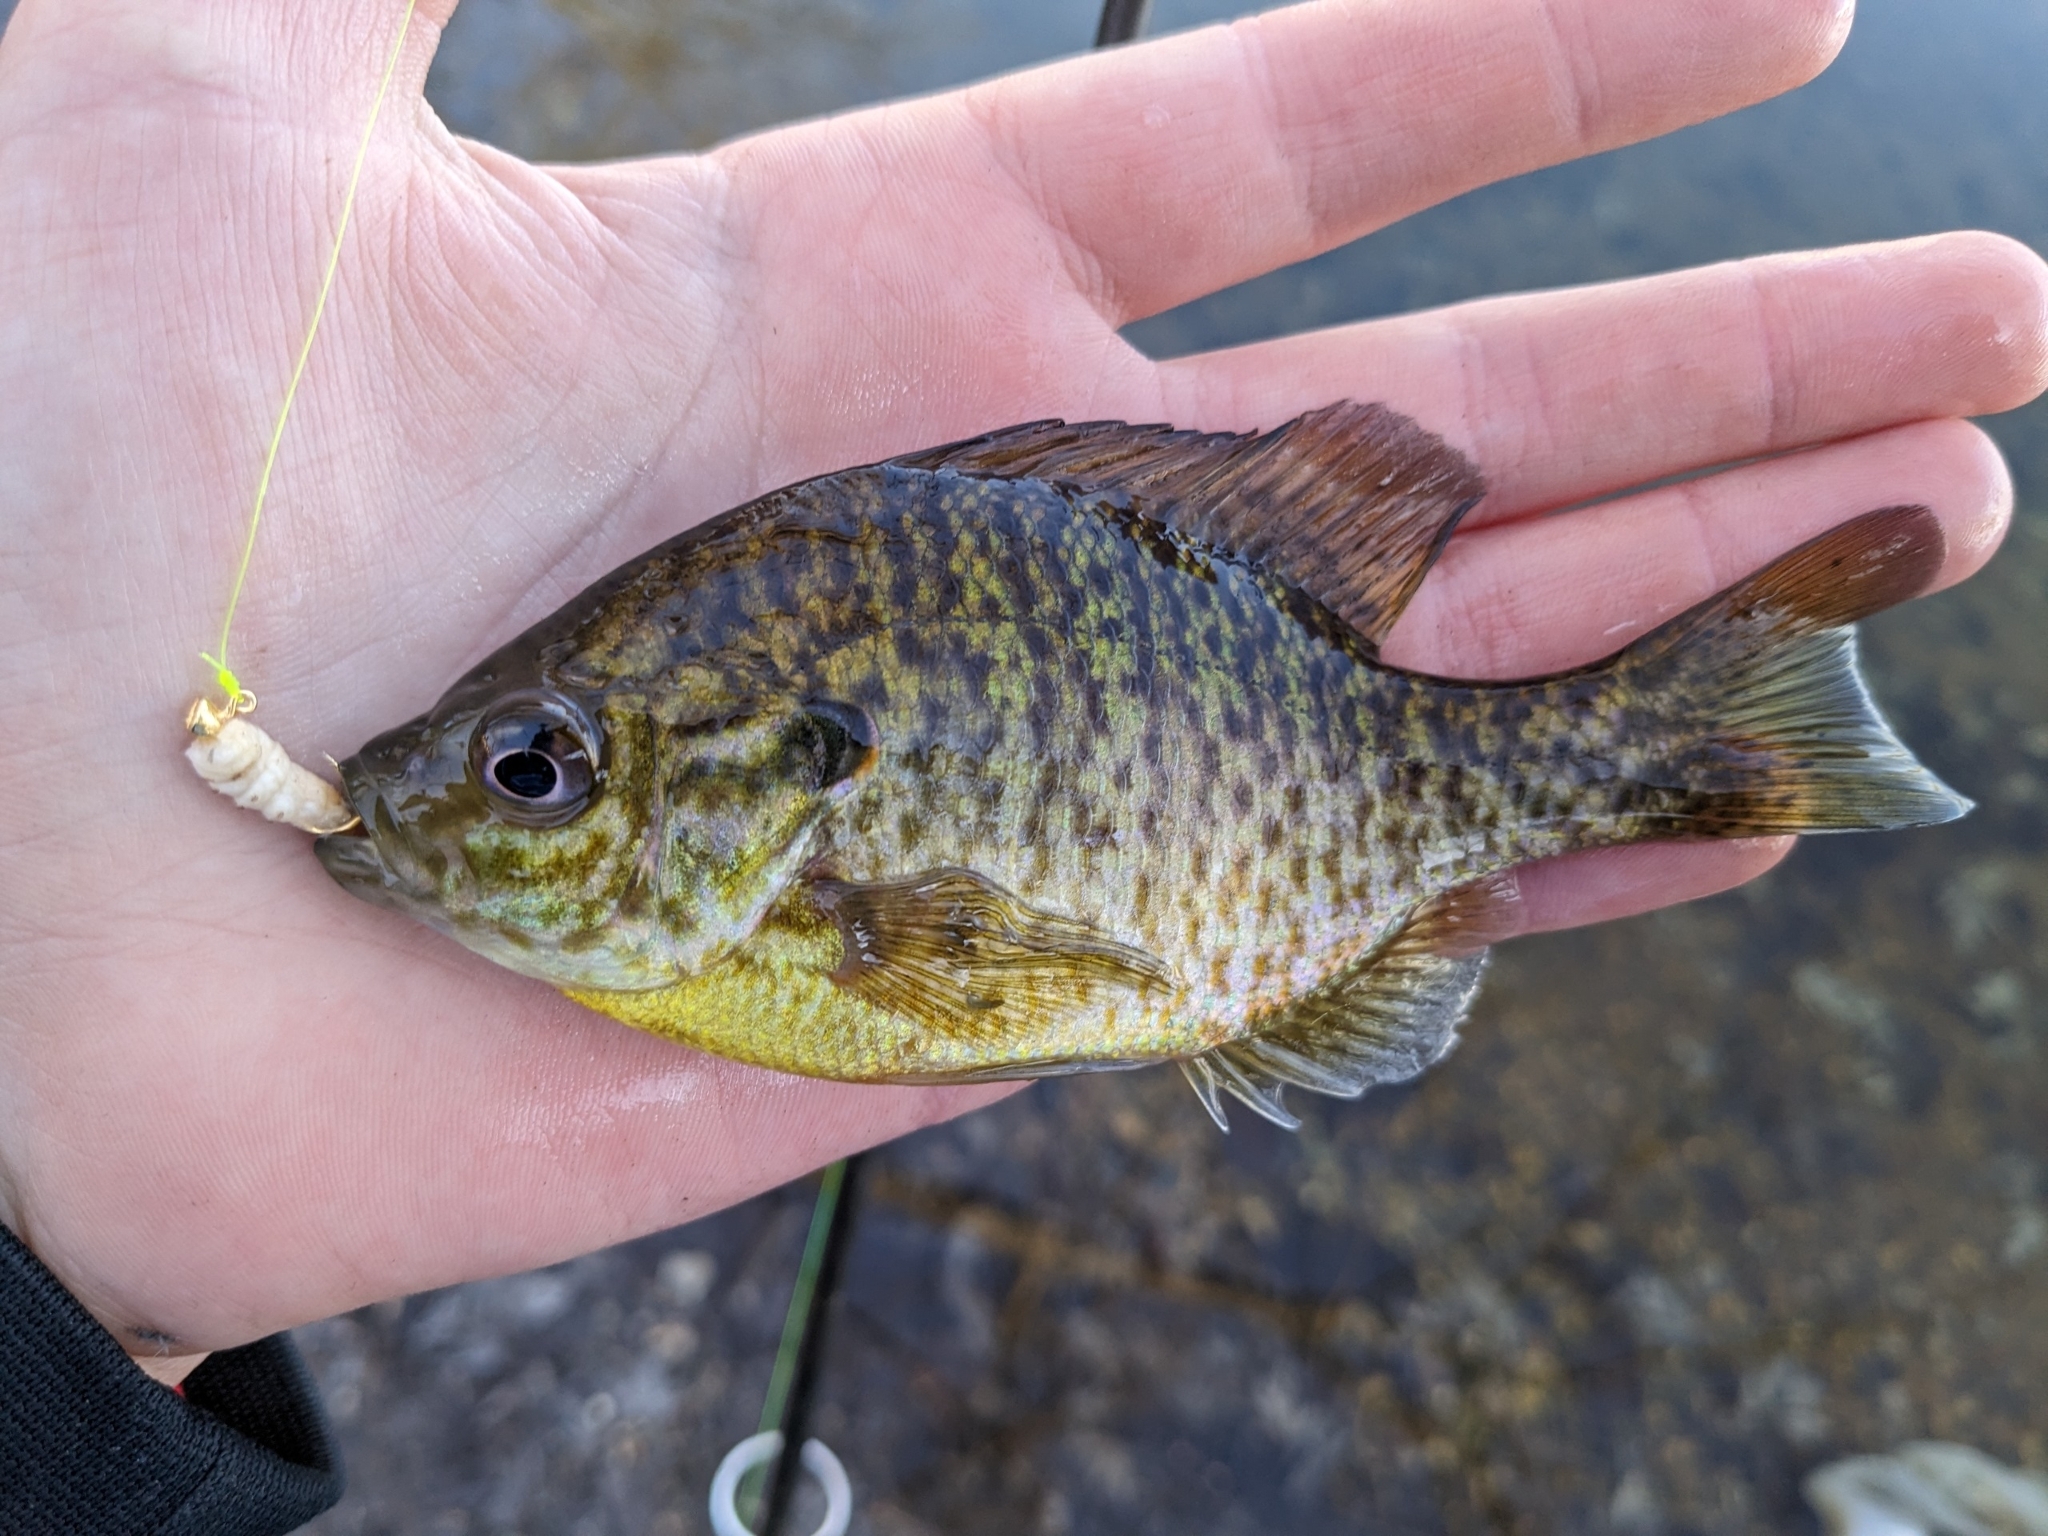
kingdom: Animalia
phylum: Chordata
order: Perciformes
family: Centrarchidae
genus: Lepomis
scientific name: Lepomis
